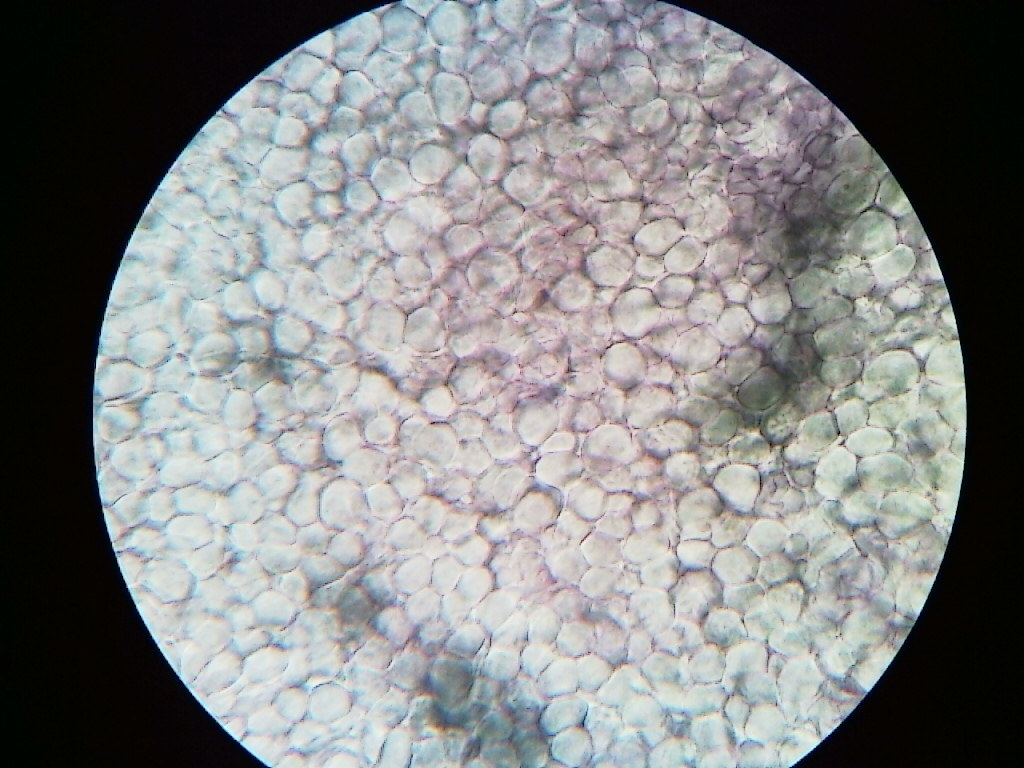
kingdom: Fungi
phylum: Basidiomycota
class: Agaricomycetes
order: Agaricales
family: Mycenaceae
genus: Mycena
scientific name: Mycena niveipes
